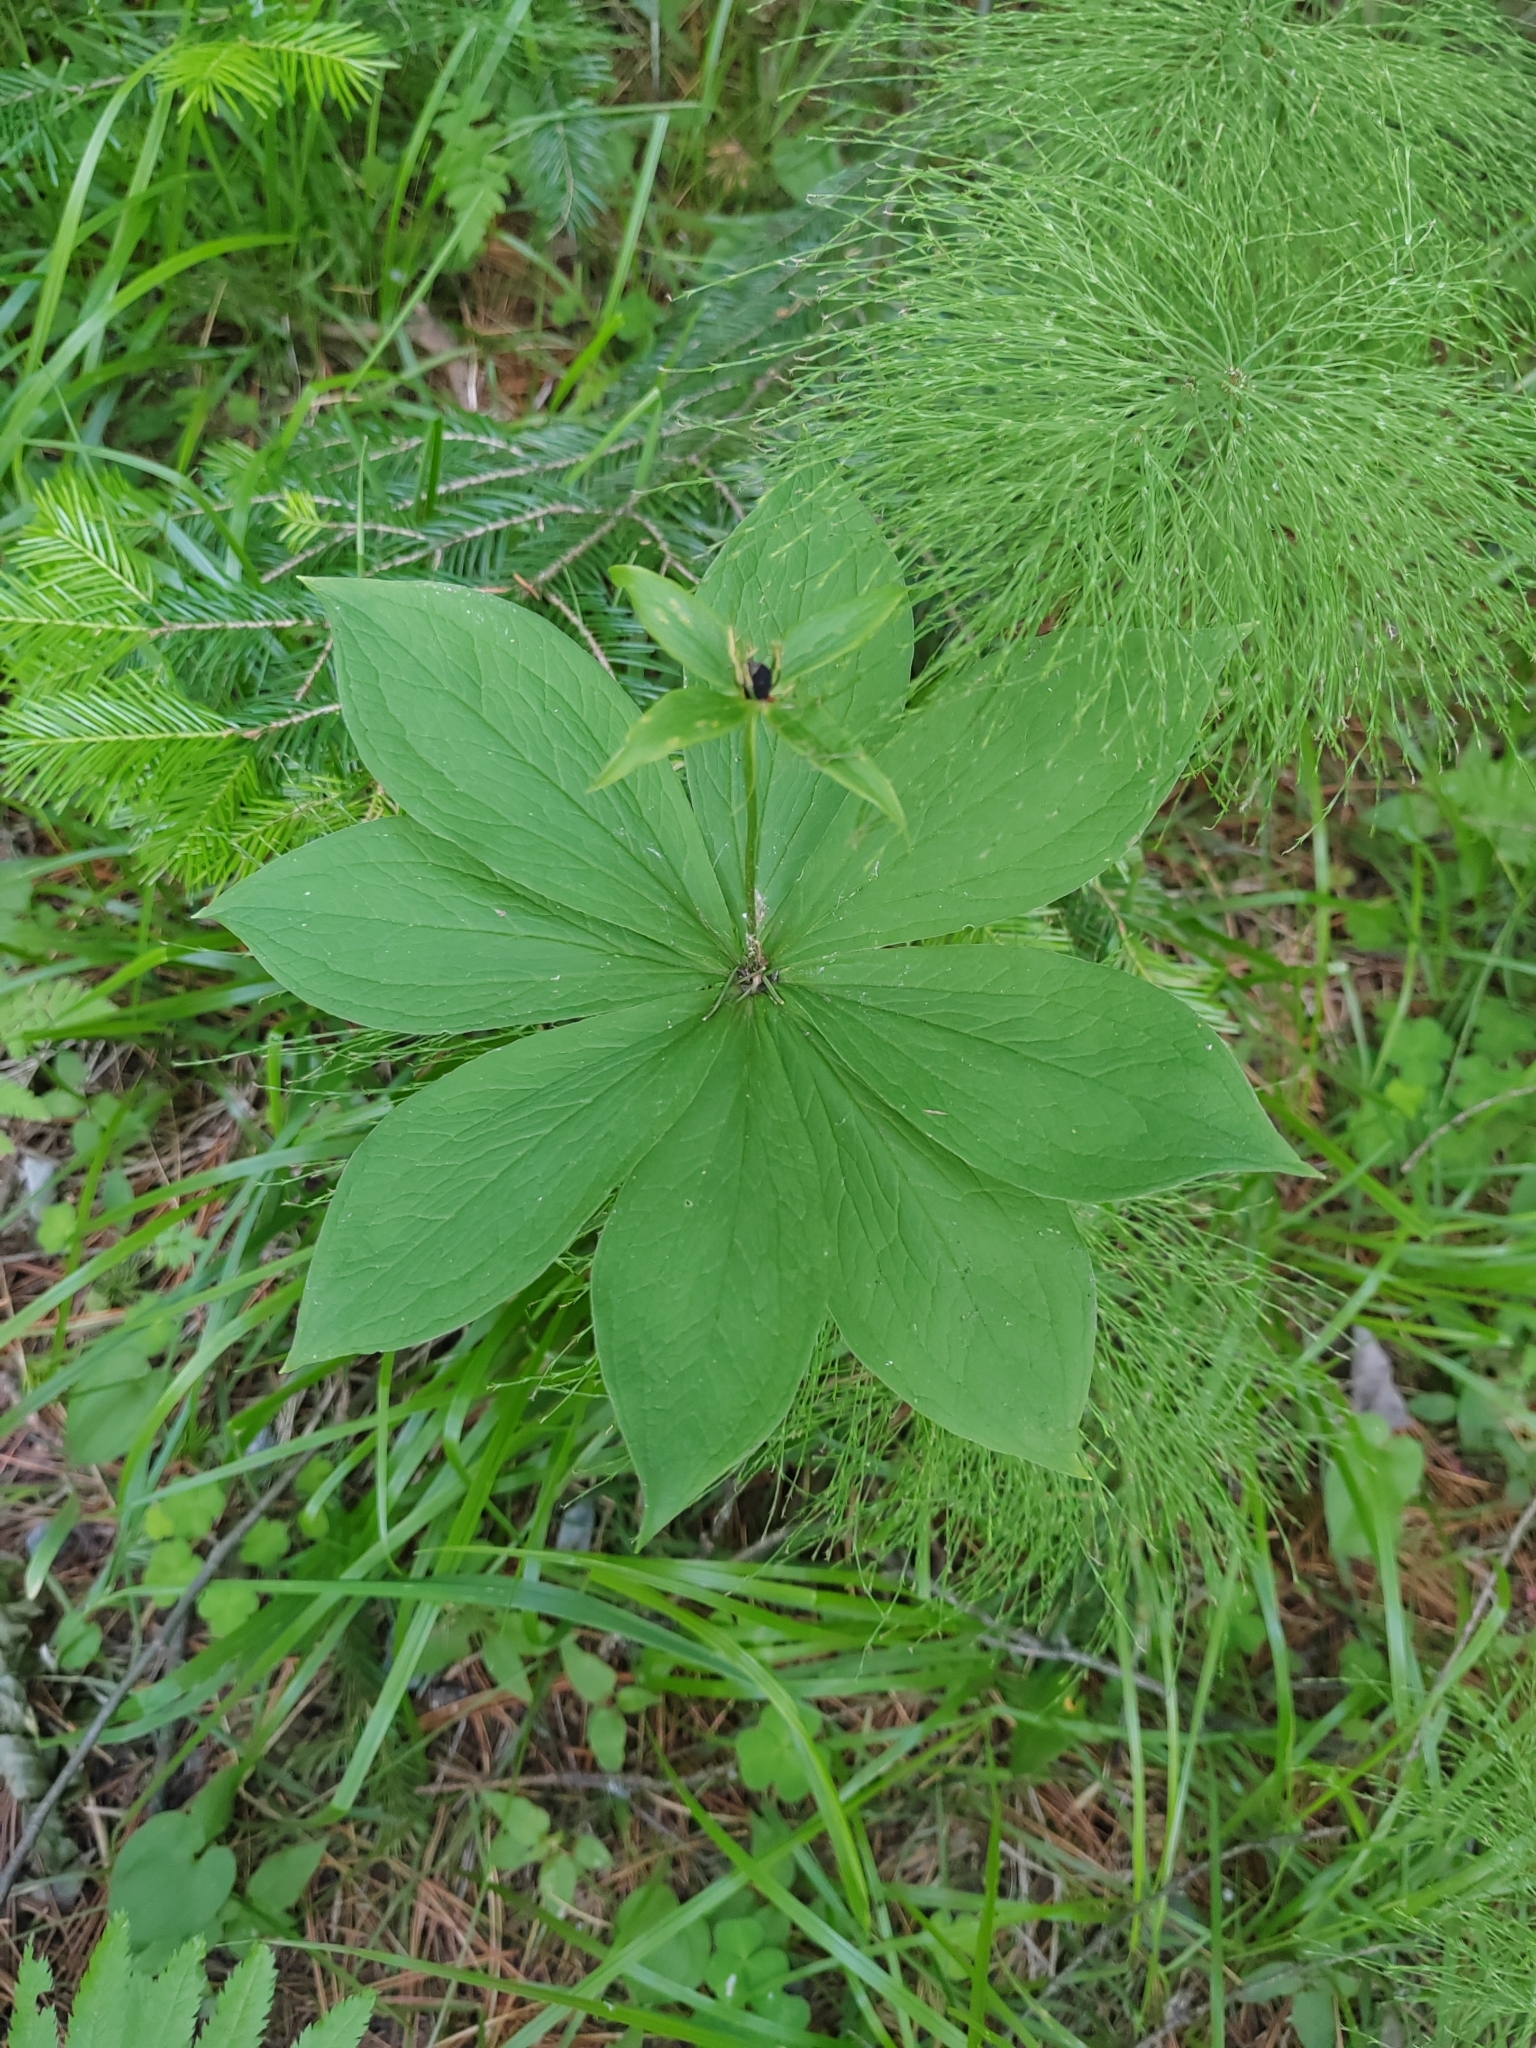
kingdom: Plantae
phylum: Tracheophyta
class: Liliopsida
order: Liliales
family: Melanthiaceae
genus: Paris
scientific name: Paris quadrifolia
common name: Herb-paris
